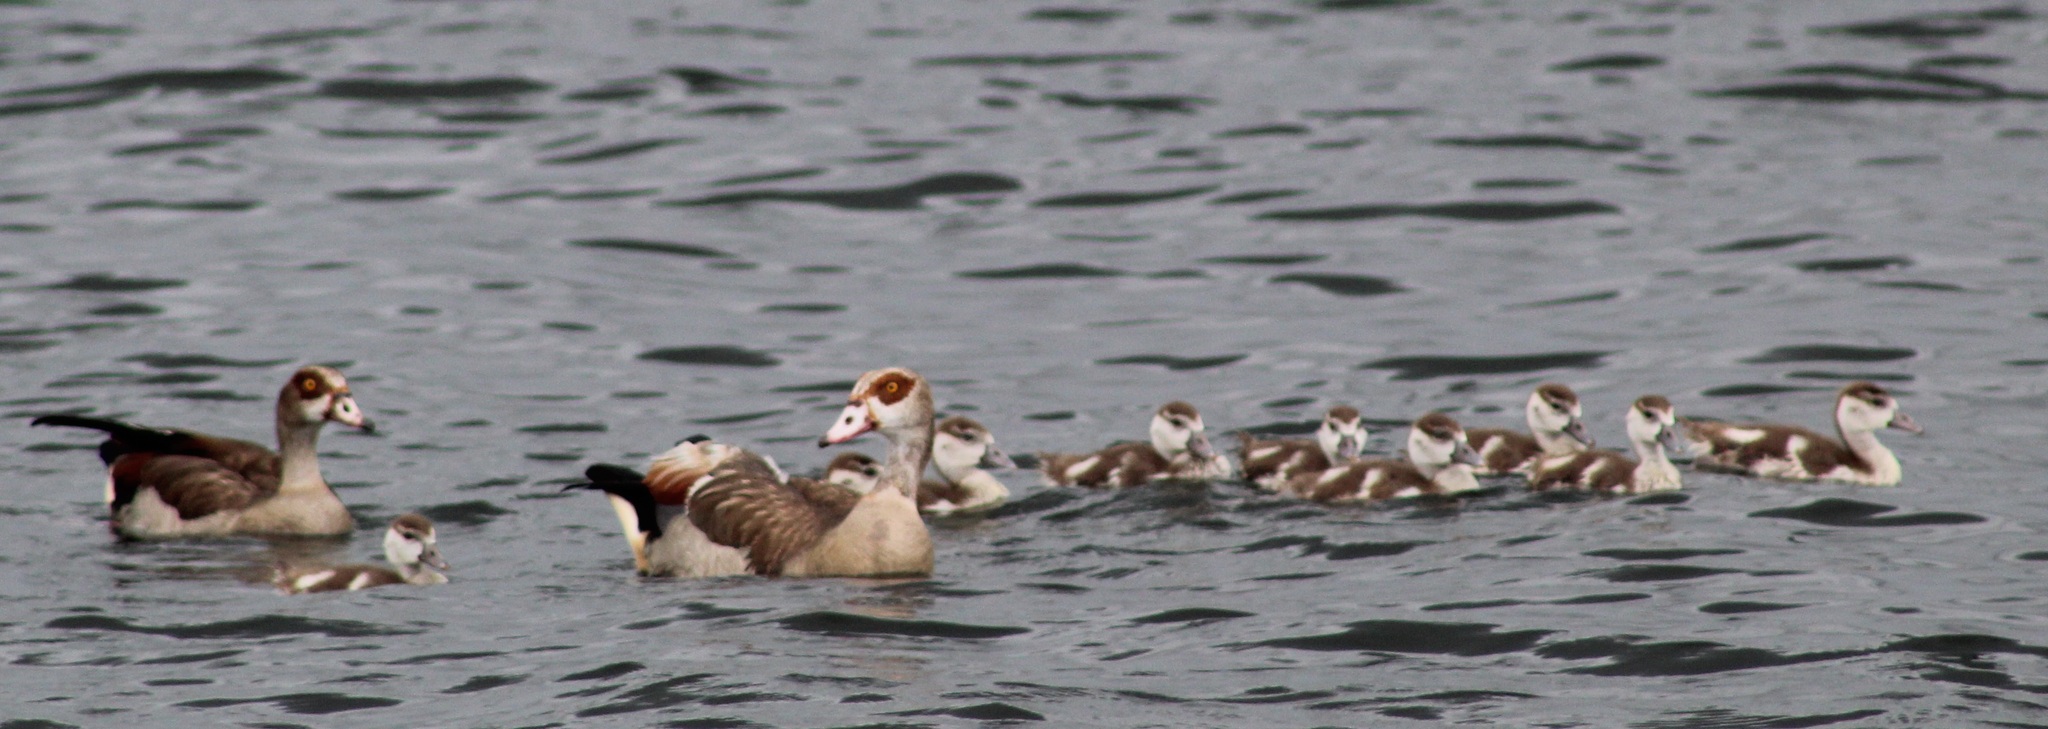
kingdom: Animalia
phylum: Chordata
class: Aves
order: Anseriformes
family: Anatidae
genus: Alopochen
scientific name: Alopochen aegyptiaca
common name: Egyptian goose
